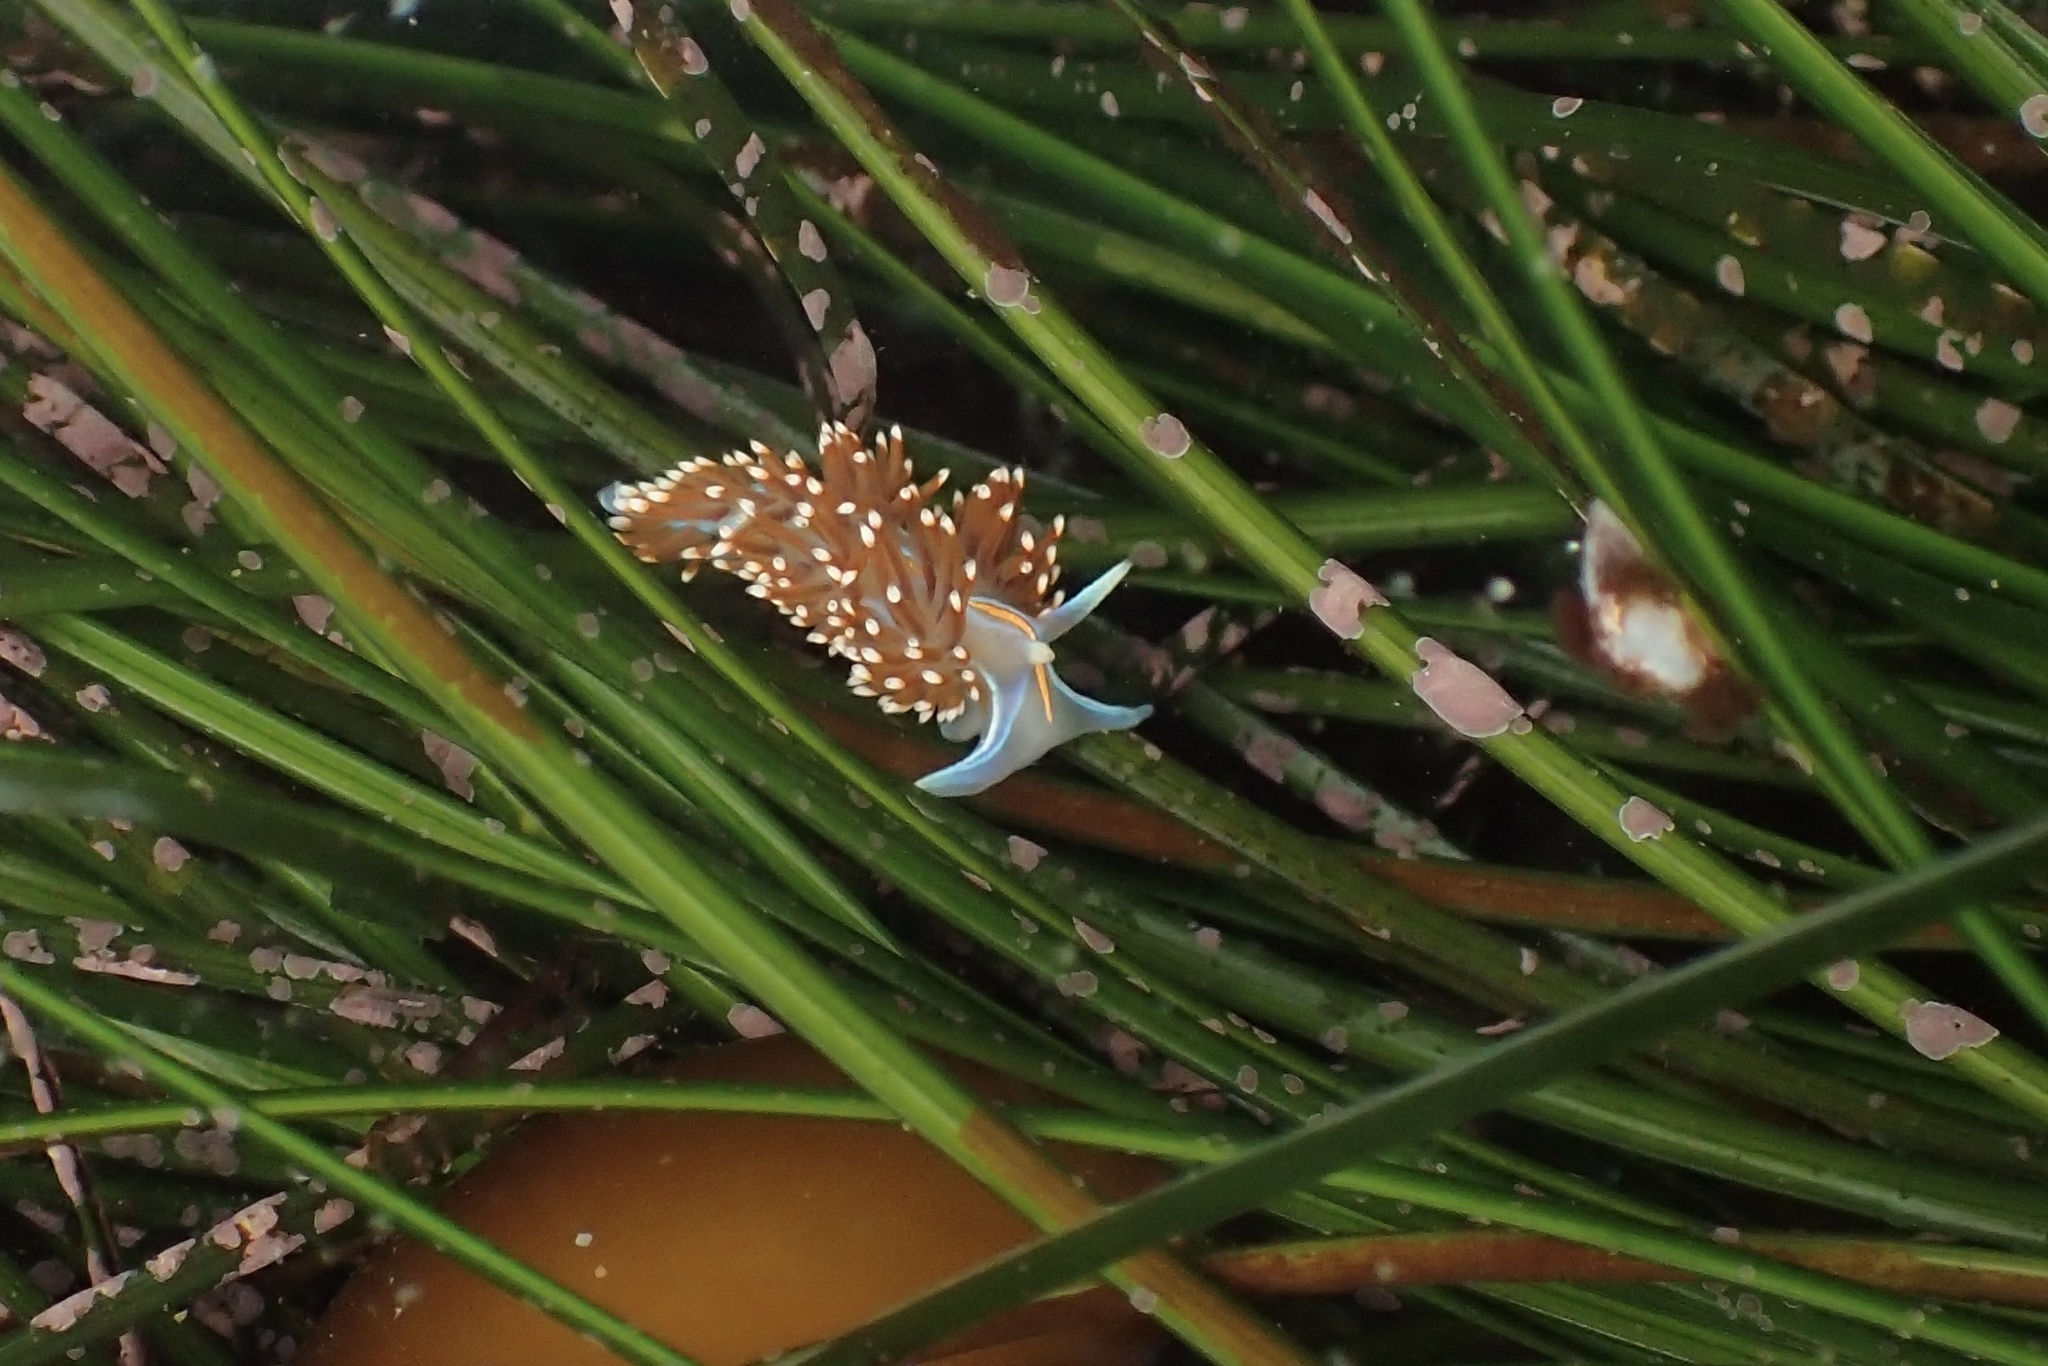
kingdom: Animalia
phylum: Mollusca
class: Gastropoda
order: Nudibranchia
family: Myrrhinidae
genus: Hermissenda
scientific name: Hermissenda opalescens
